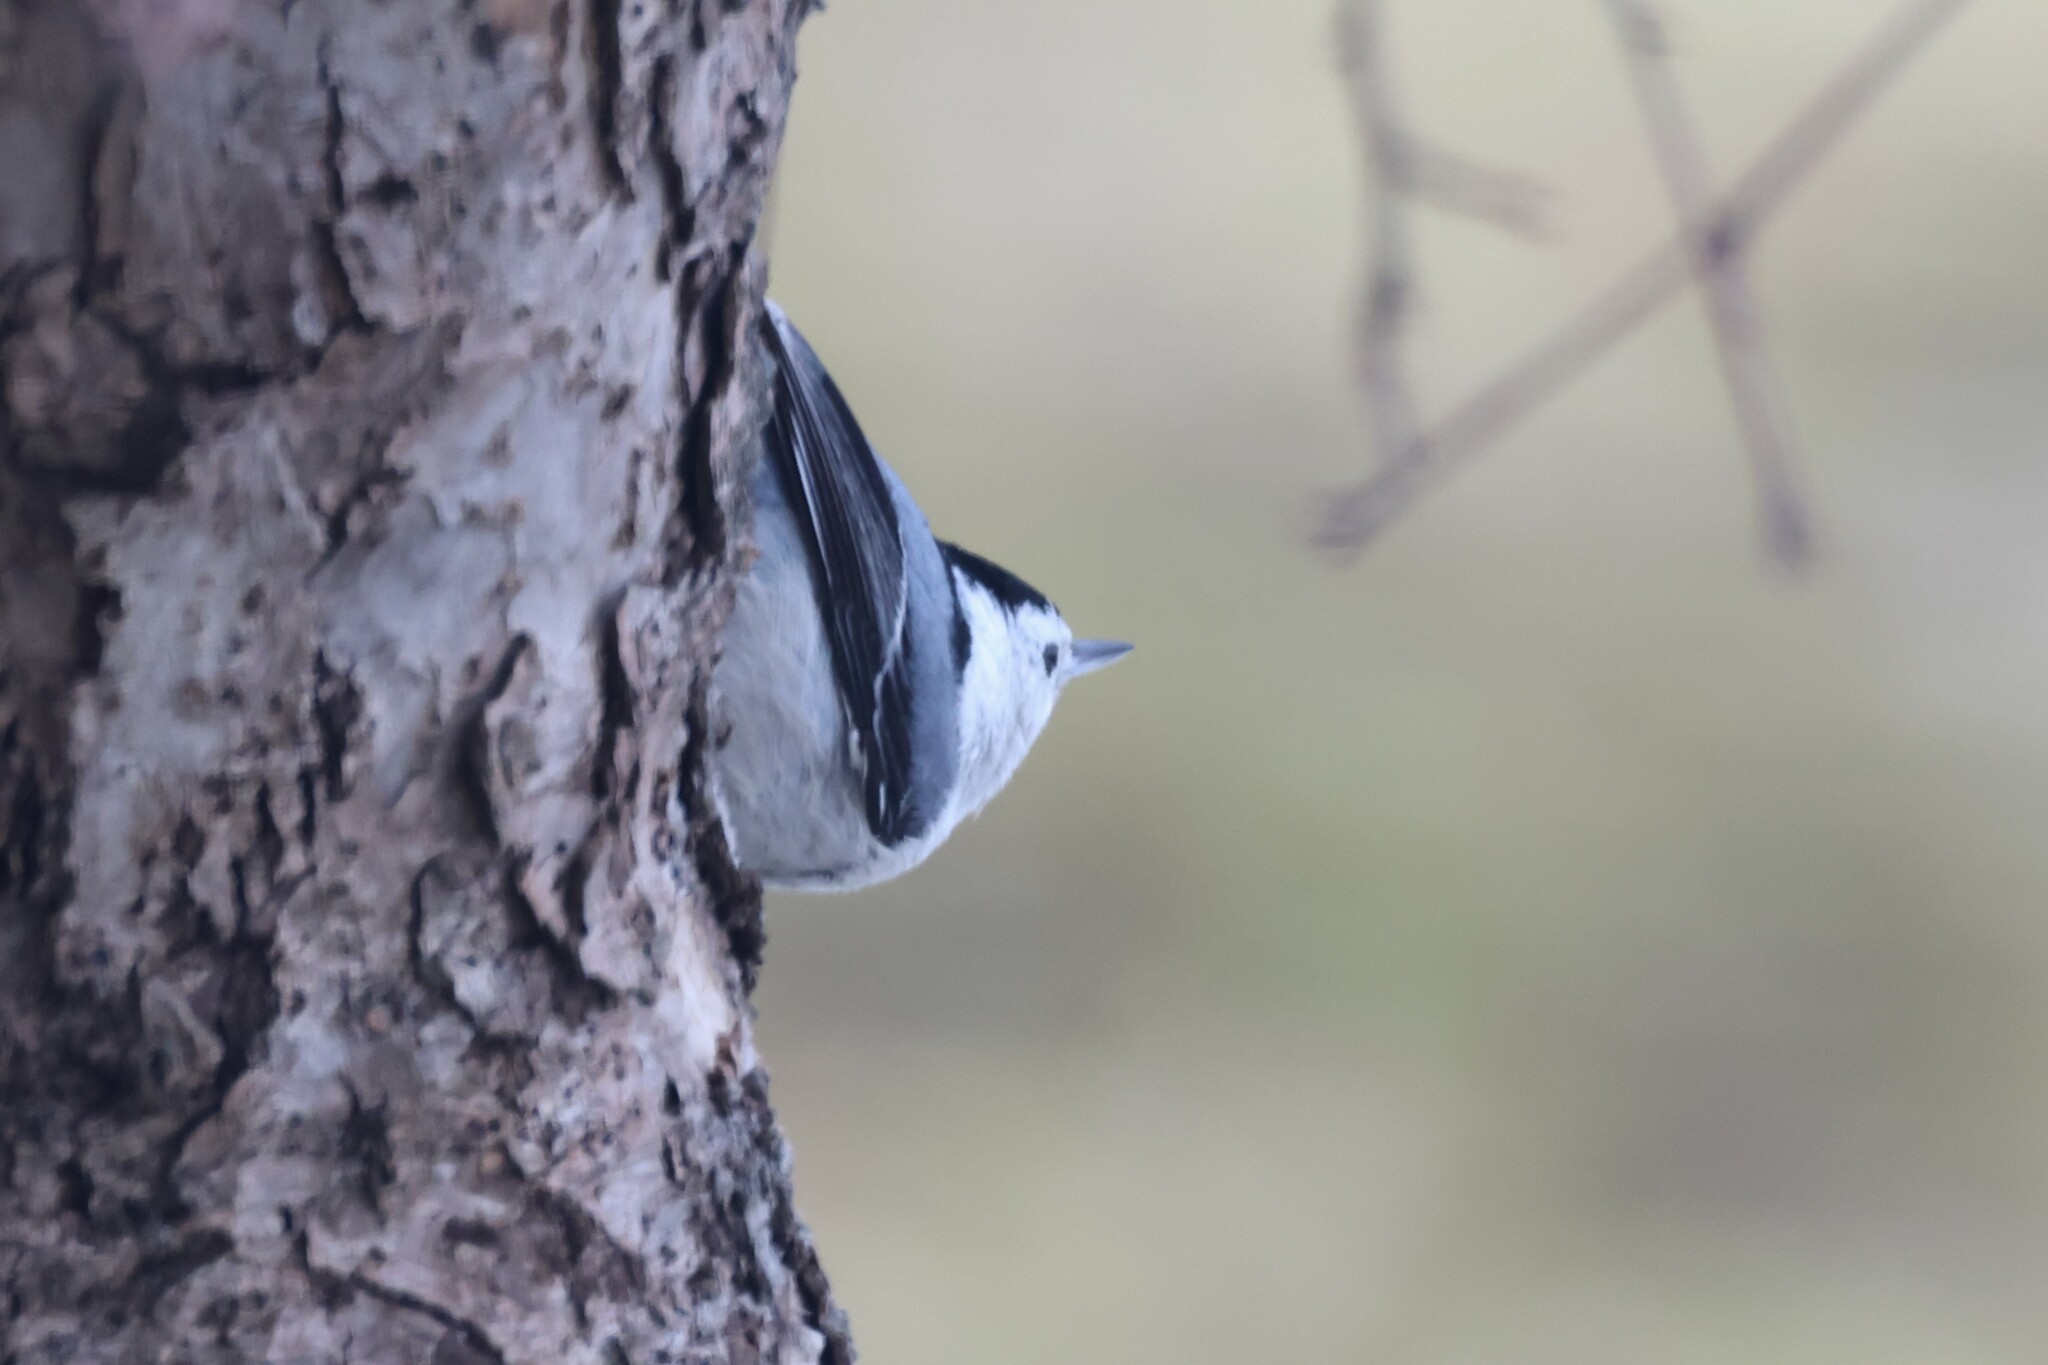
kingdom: Animalia
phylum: Chordata
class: Aves
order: Passeriformes
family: Sittidae
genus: Sitta
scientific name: Sitta carolinensis
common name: White-breasted nuthatch
